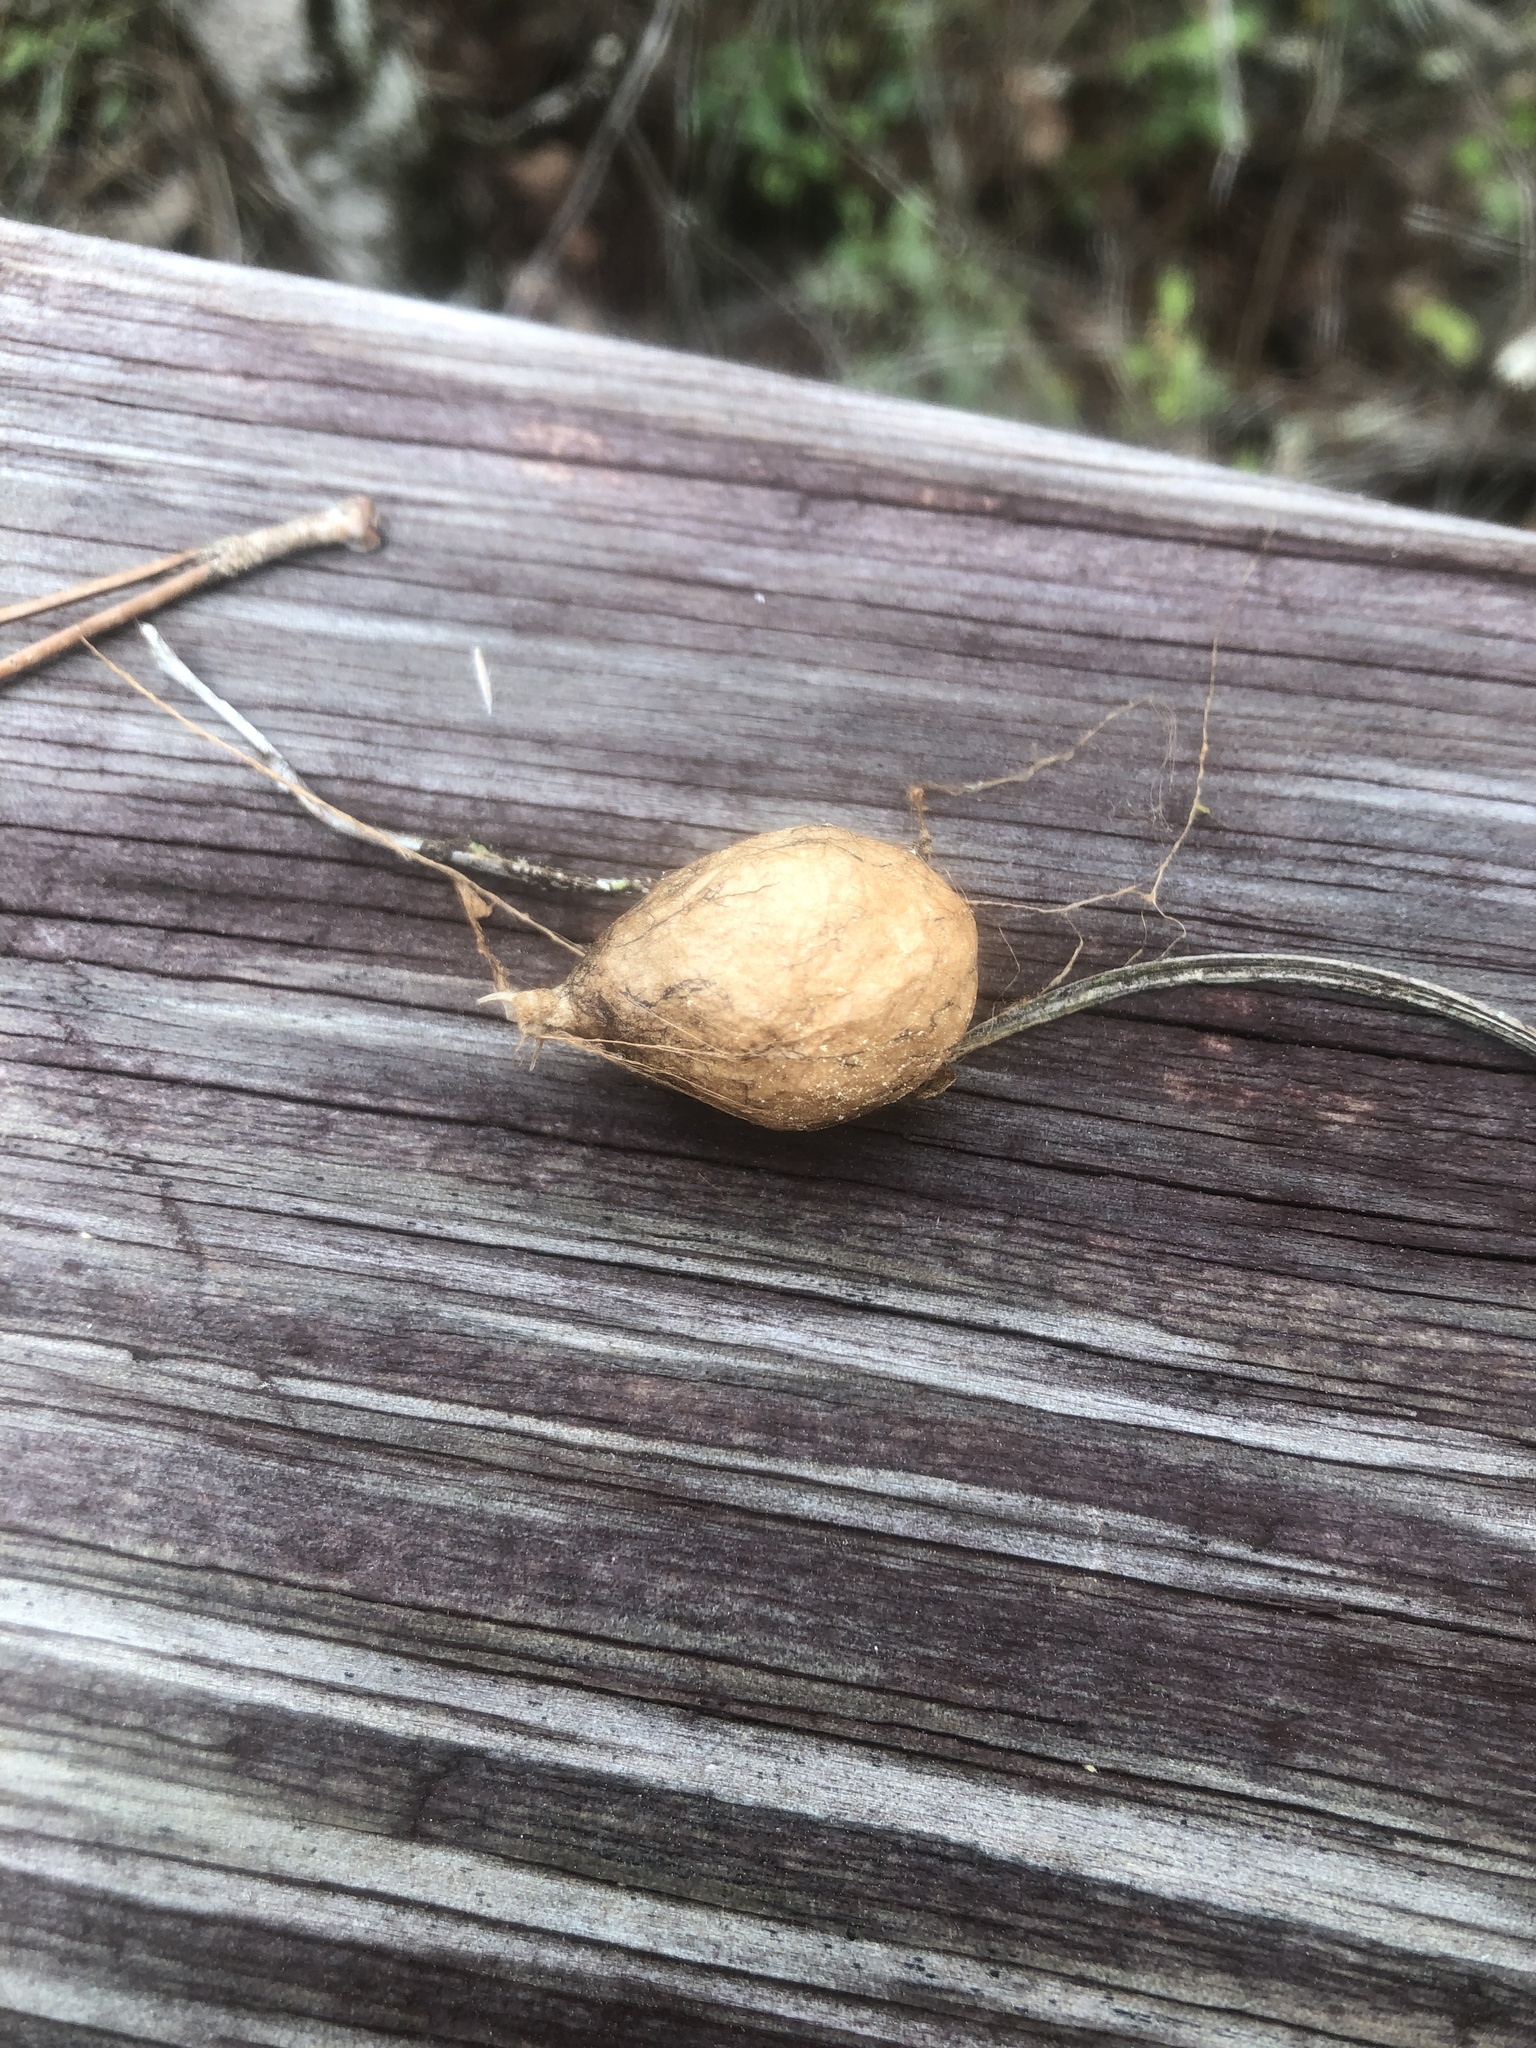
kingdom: Animalia
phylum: Arthropoda
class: Arachnida
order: Araneae
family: Araneidae
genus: Argiope
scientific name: Argiope aurantia
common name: Orb weavers
